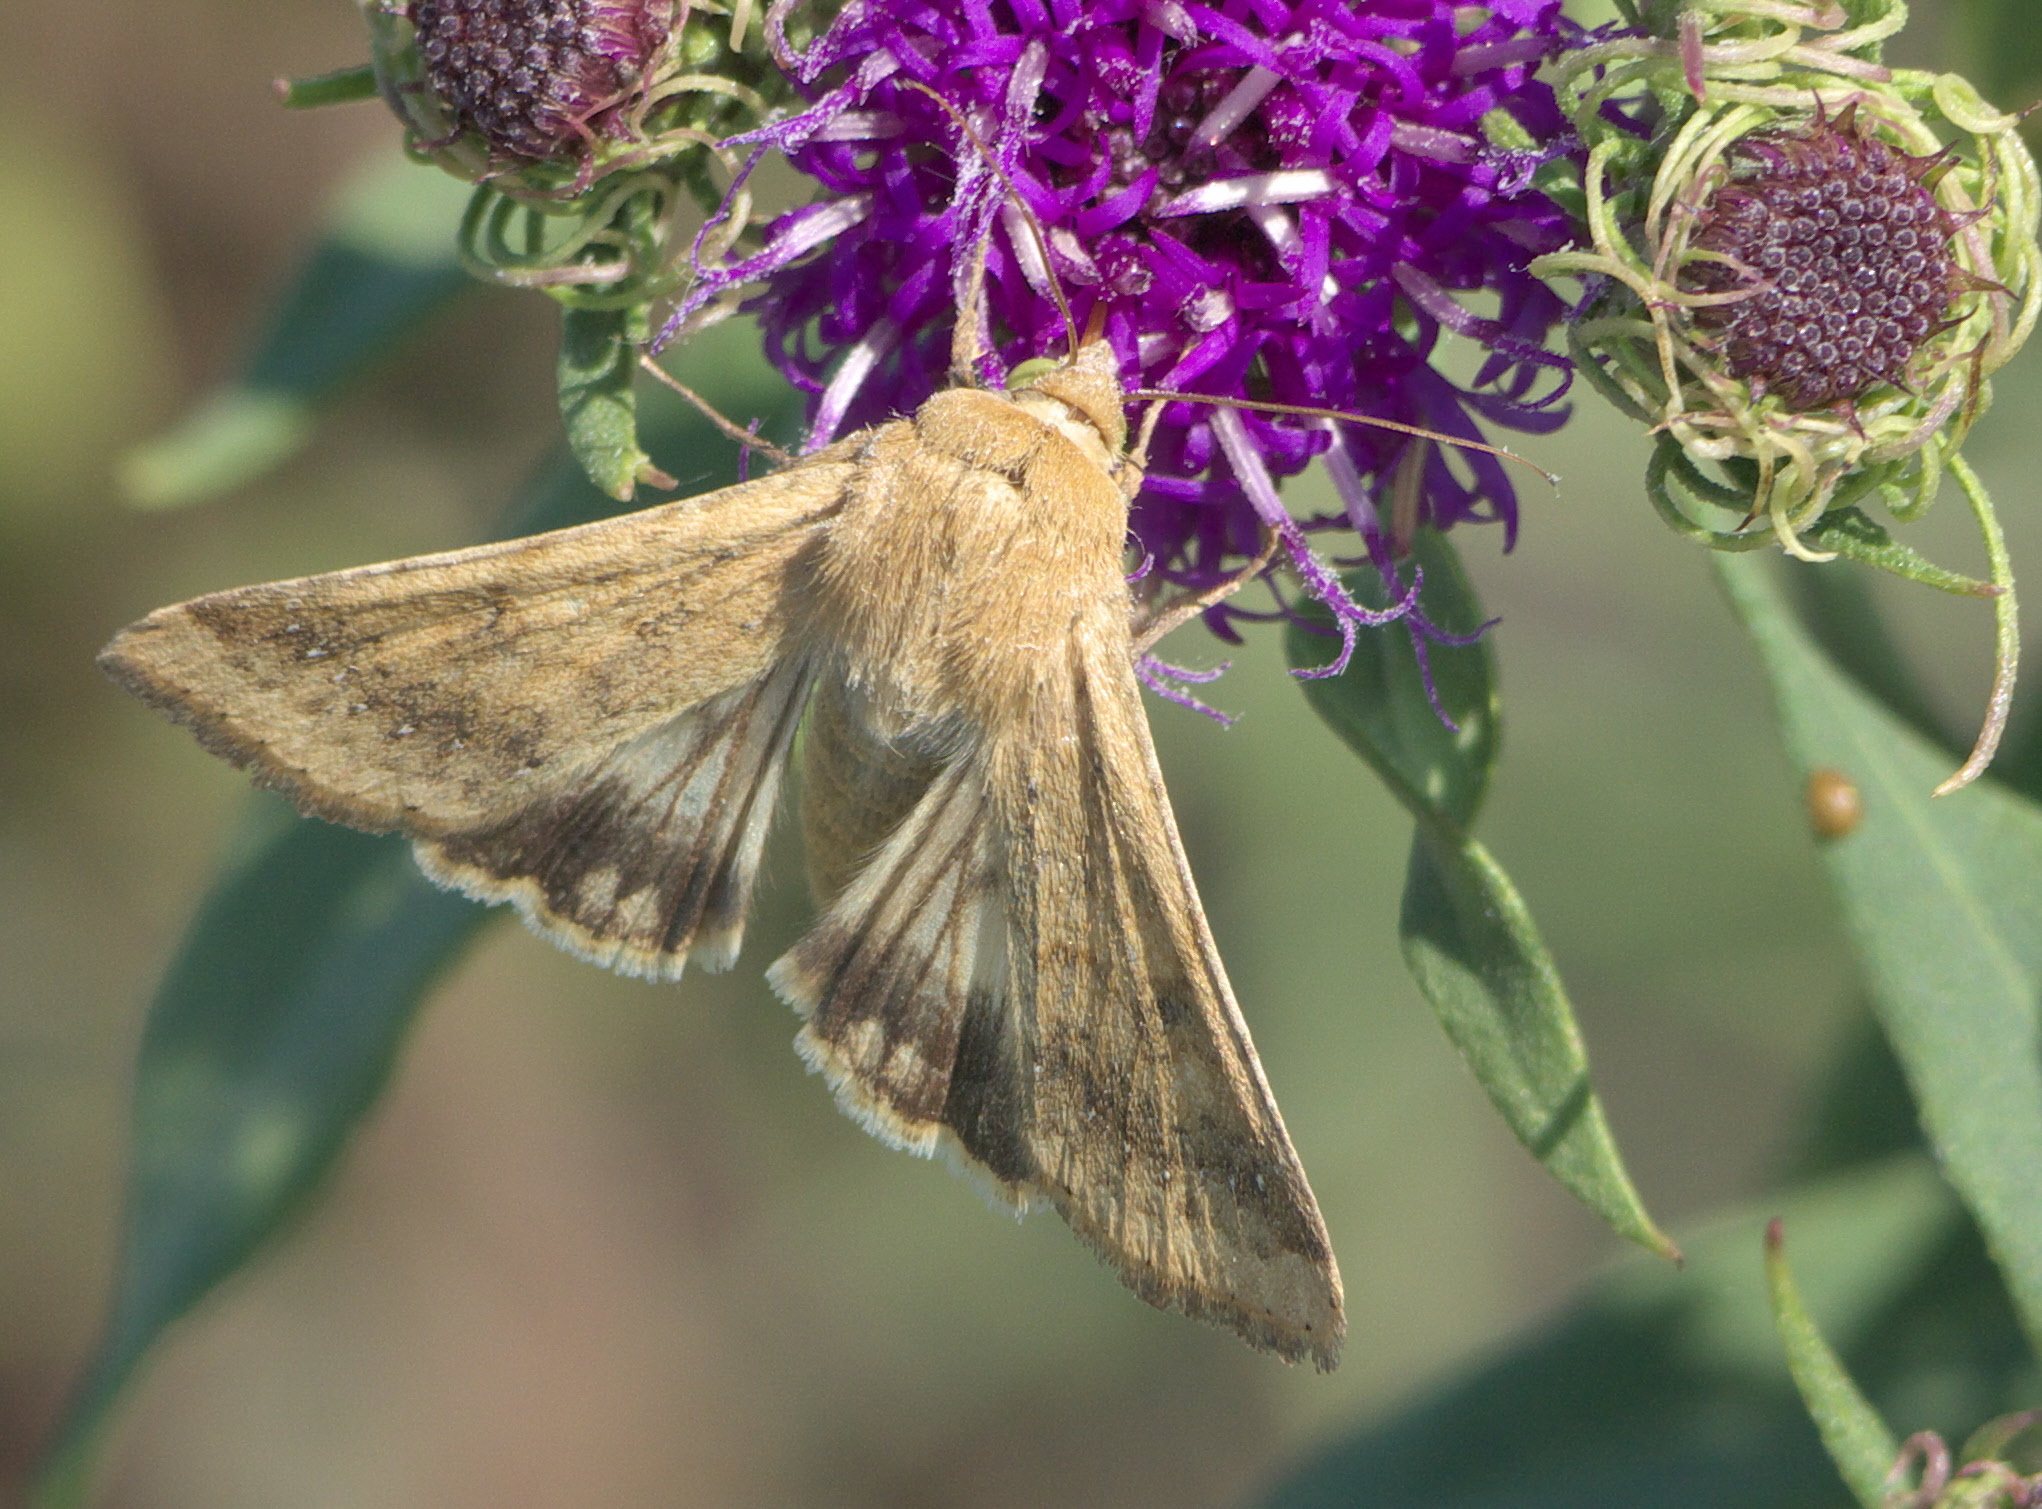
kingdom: Animalia
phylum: Arthropoda
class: Insecta
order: Lepidoptera
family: Noctuidae
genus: Helicoverpa
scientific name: Helicoverpa zea
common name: Bollworm
